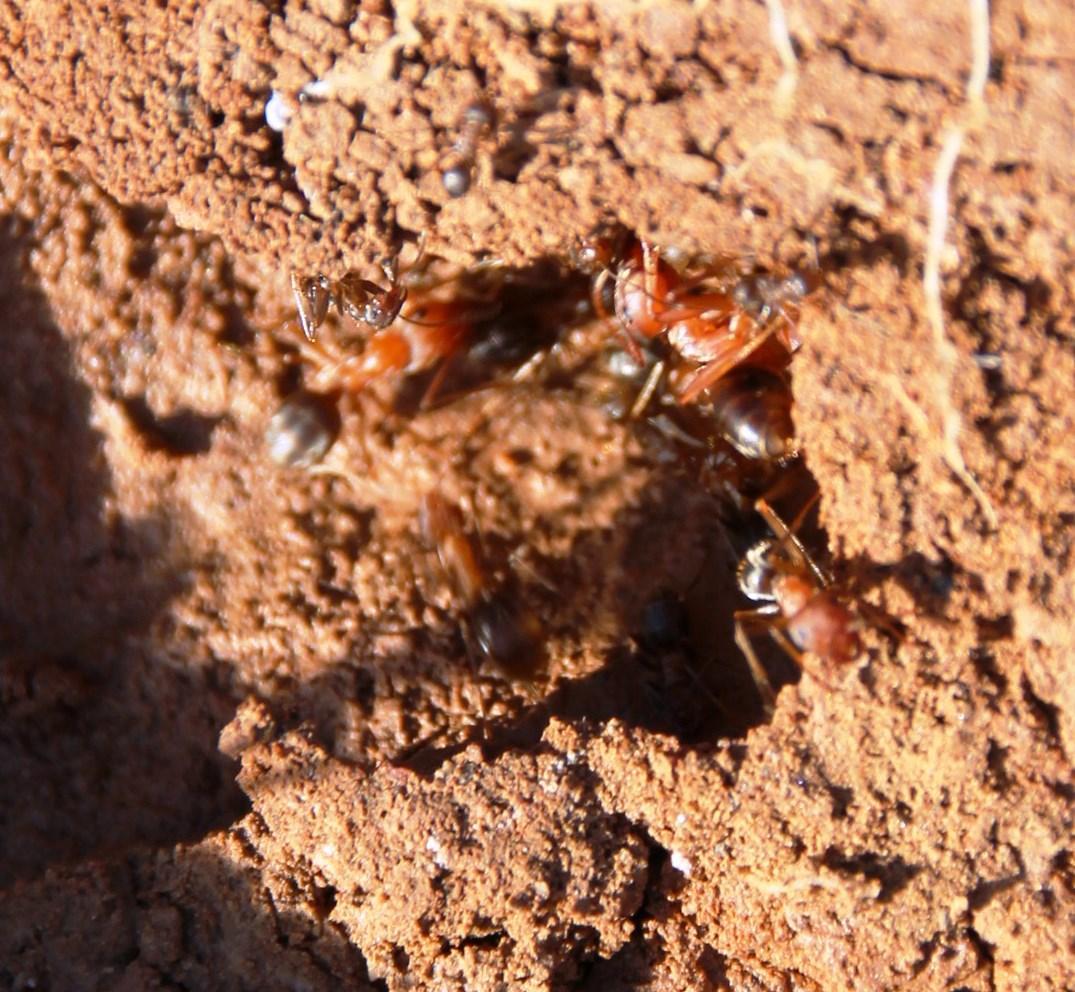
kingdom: Animalia
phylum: Arthropoda
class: Insecta
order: Hymenoptera
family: Formicidae
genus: Anoplolepis
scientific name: Anoplolepis custodiens
